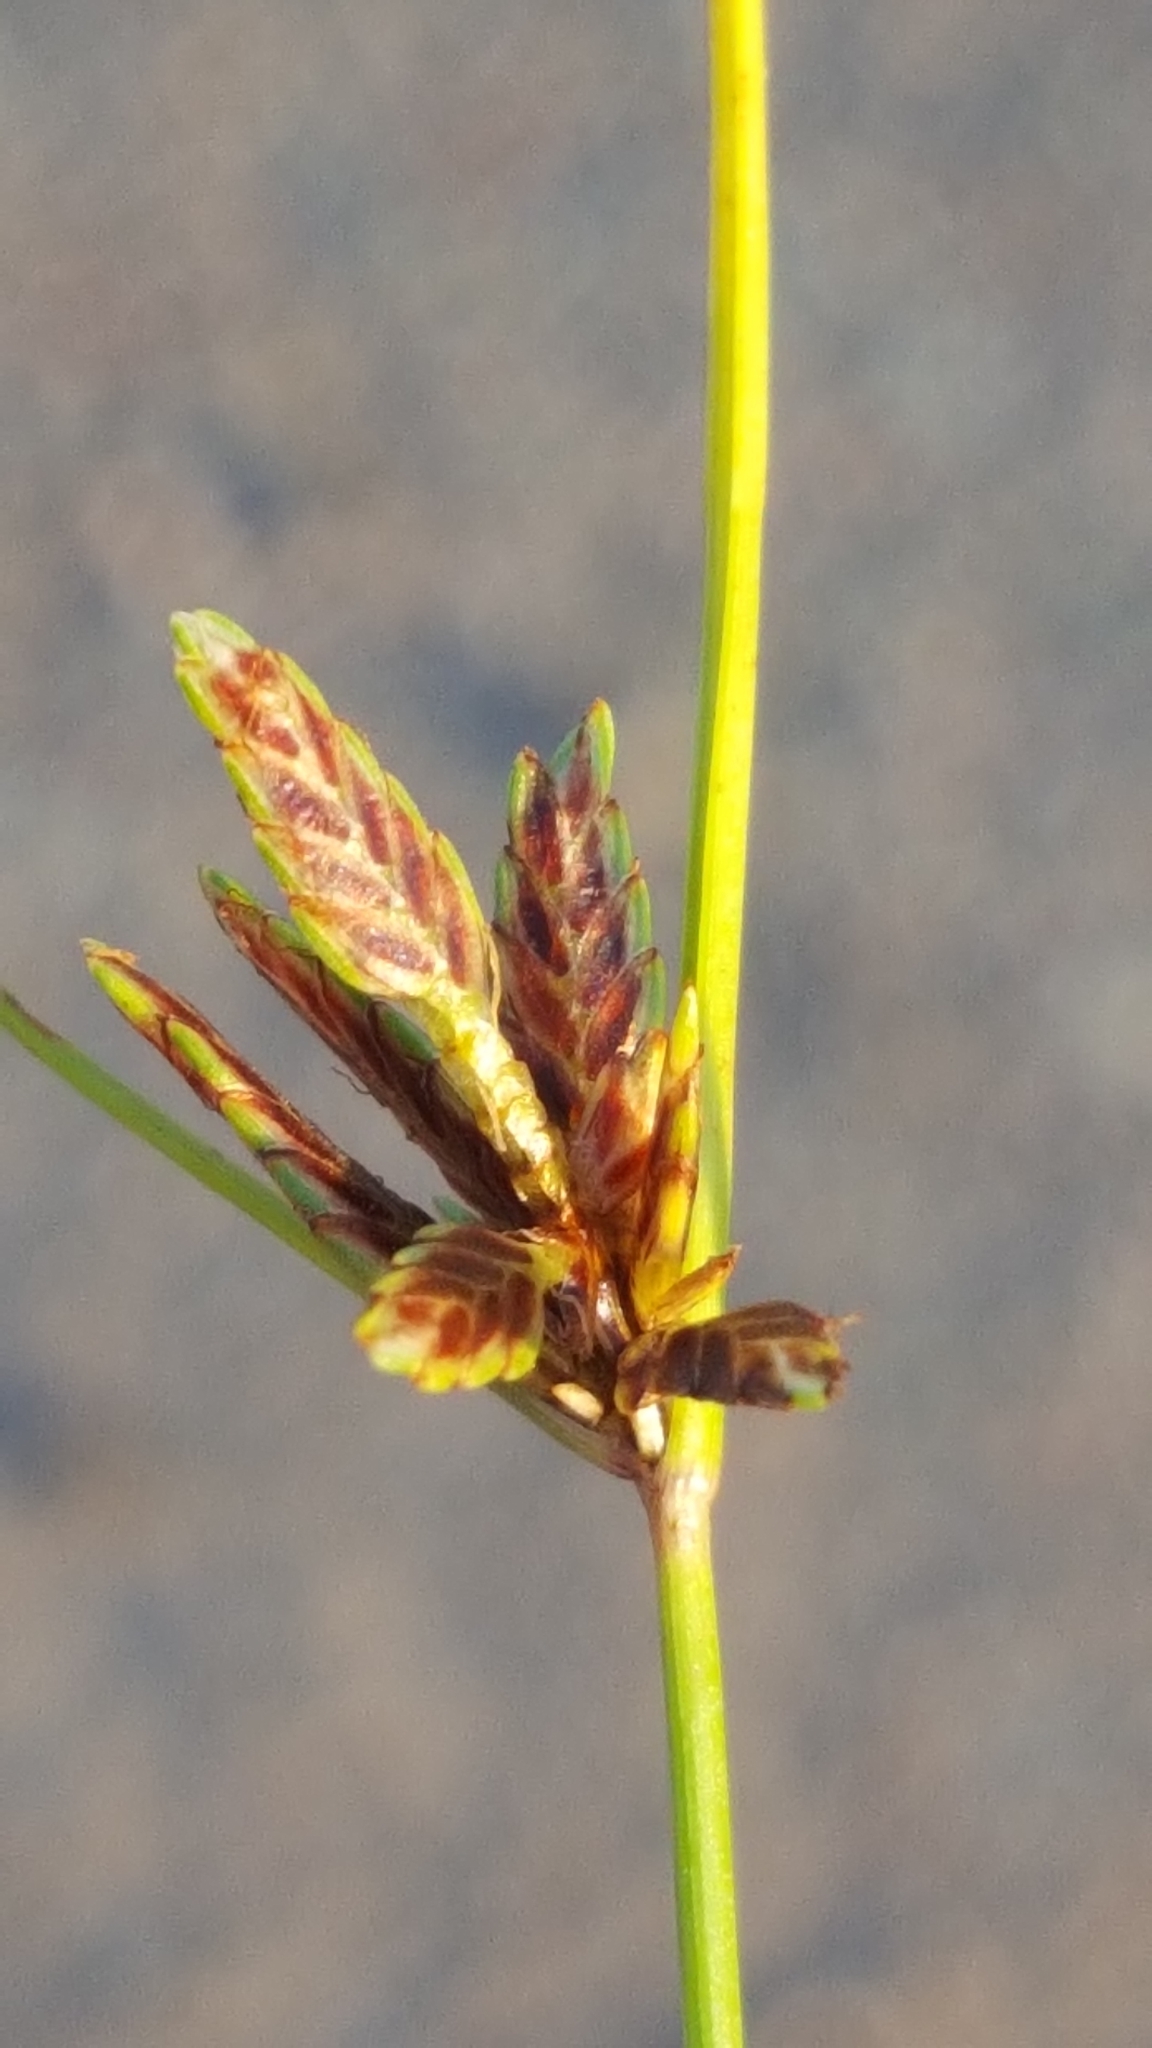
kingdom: Plantae
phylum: Tracheophyta
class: Liliopsida
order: Poales
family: Cyperaceae
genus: Cyperus
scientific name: Cyperus bipartitus
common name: Brook flatsedge
